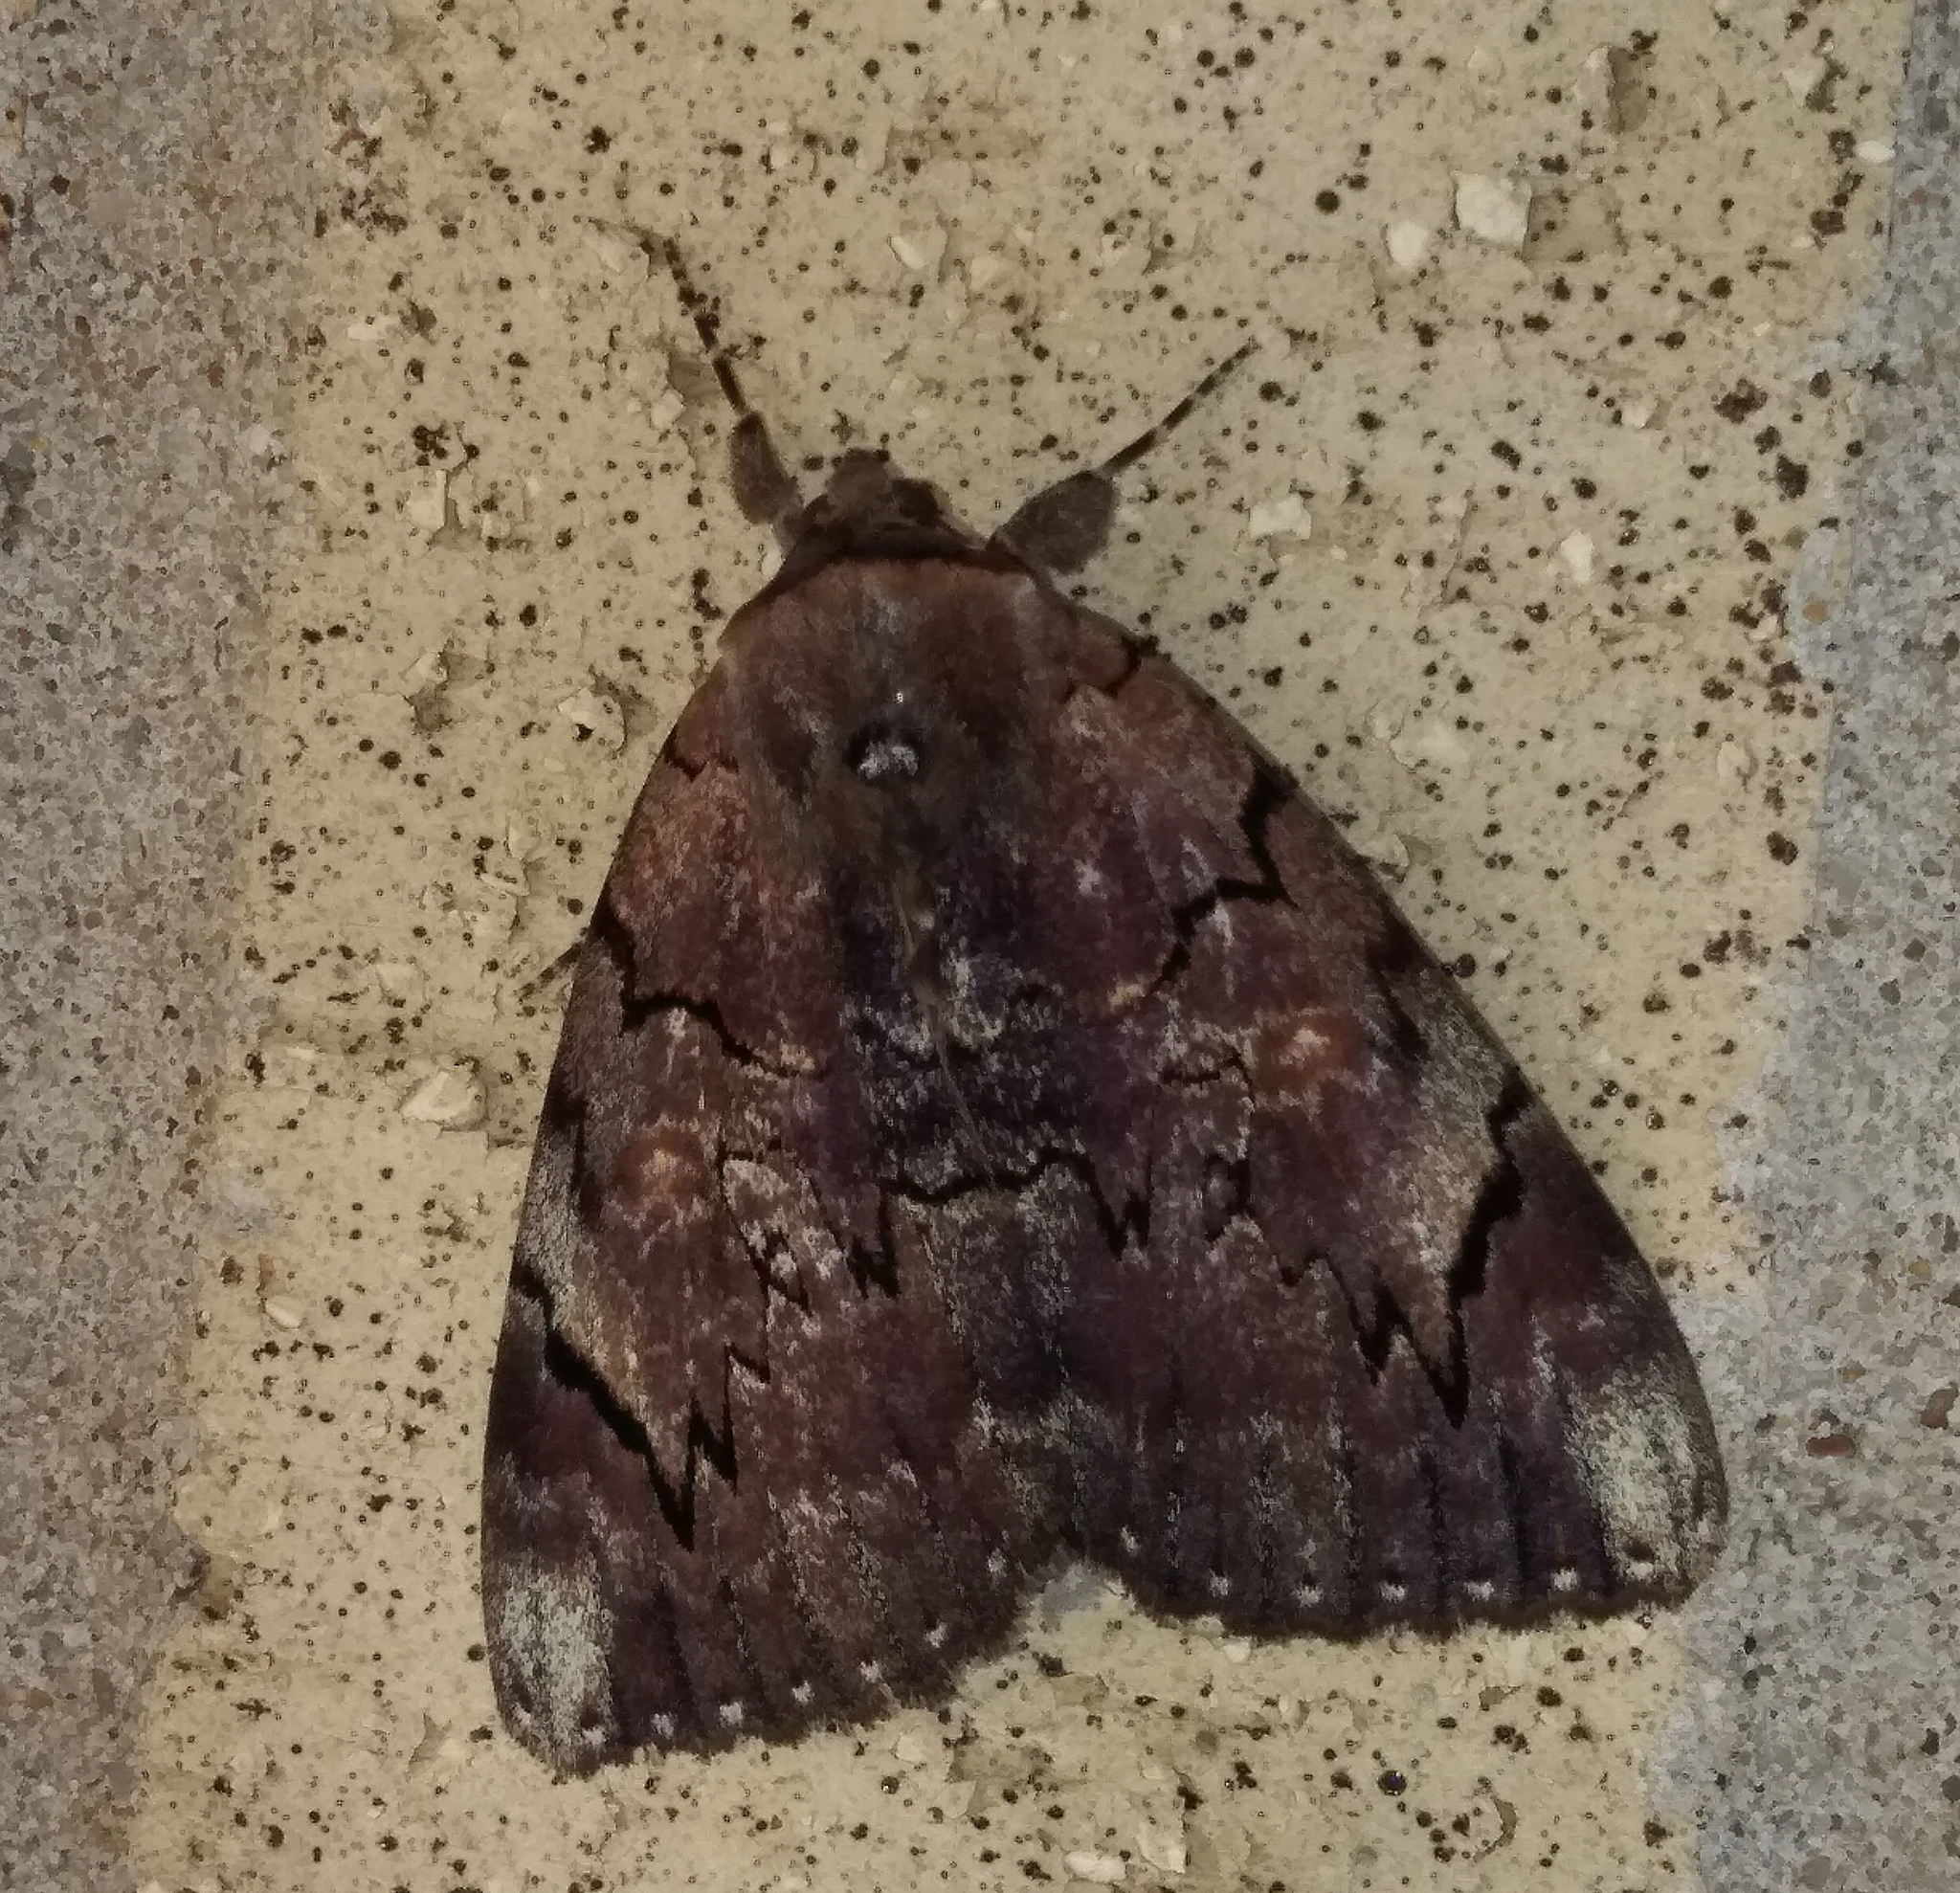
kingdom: Animalia
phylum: Arthropoda
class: Insecta
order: Lepidoptera
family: Erebidae
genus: Catocala
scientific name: Catocala carissima
